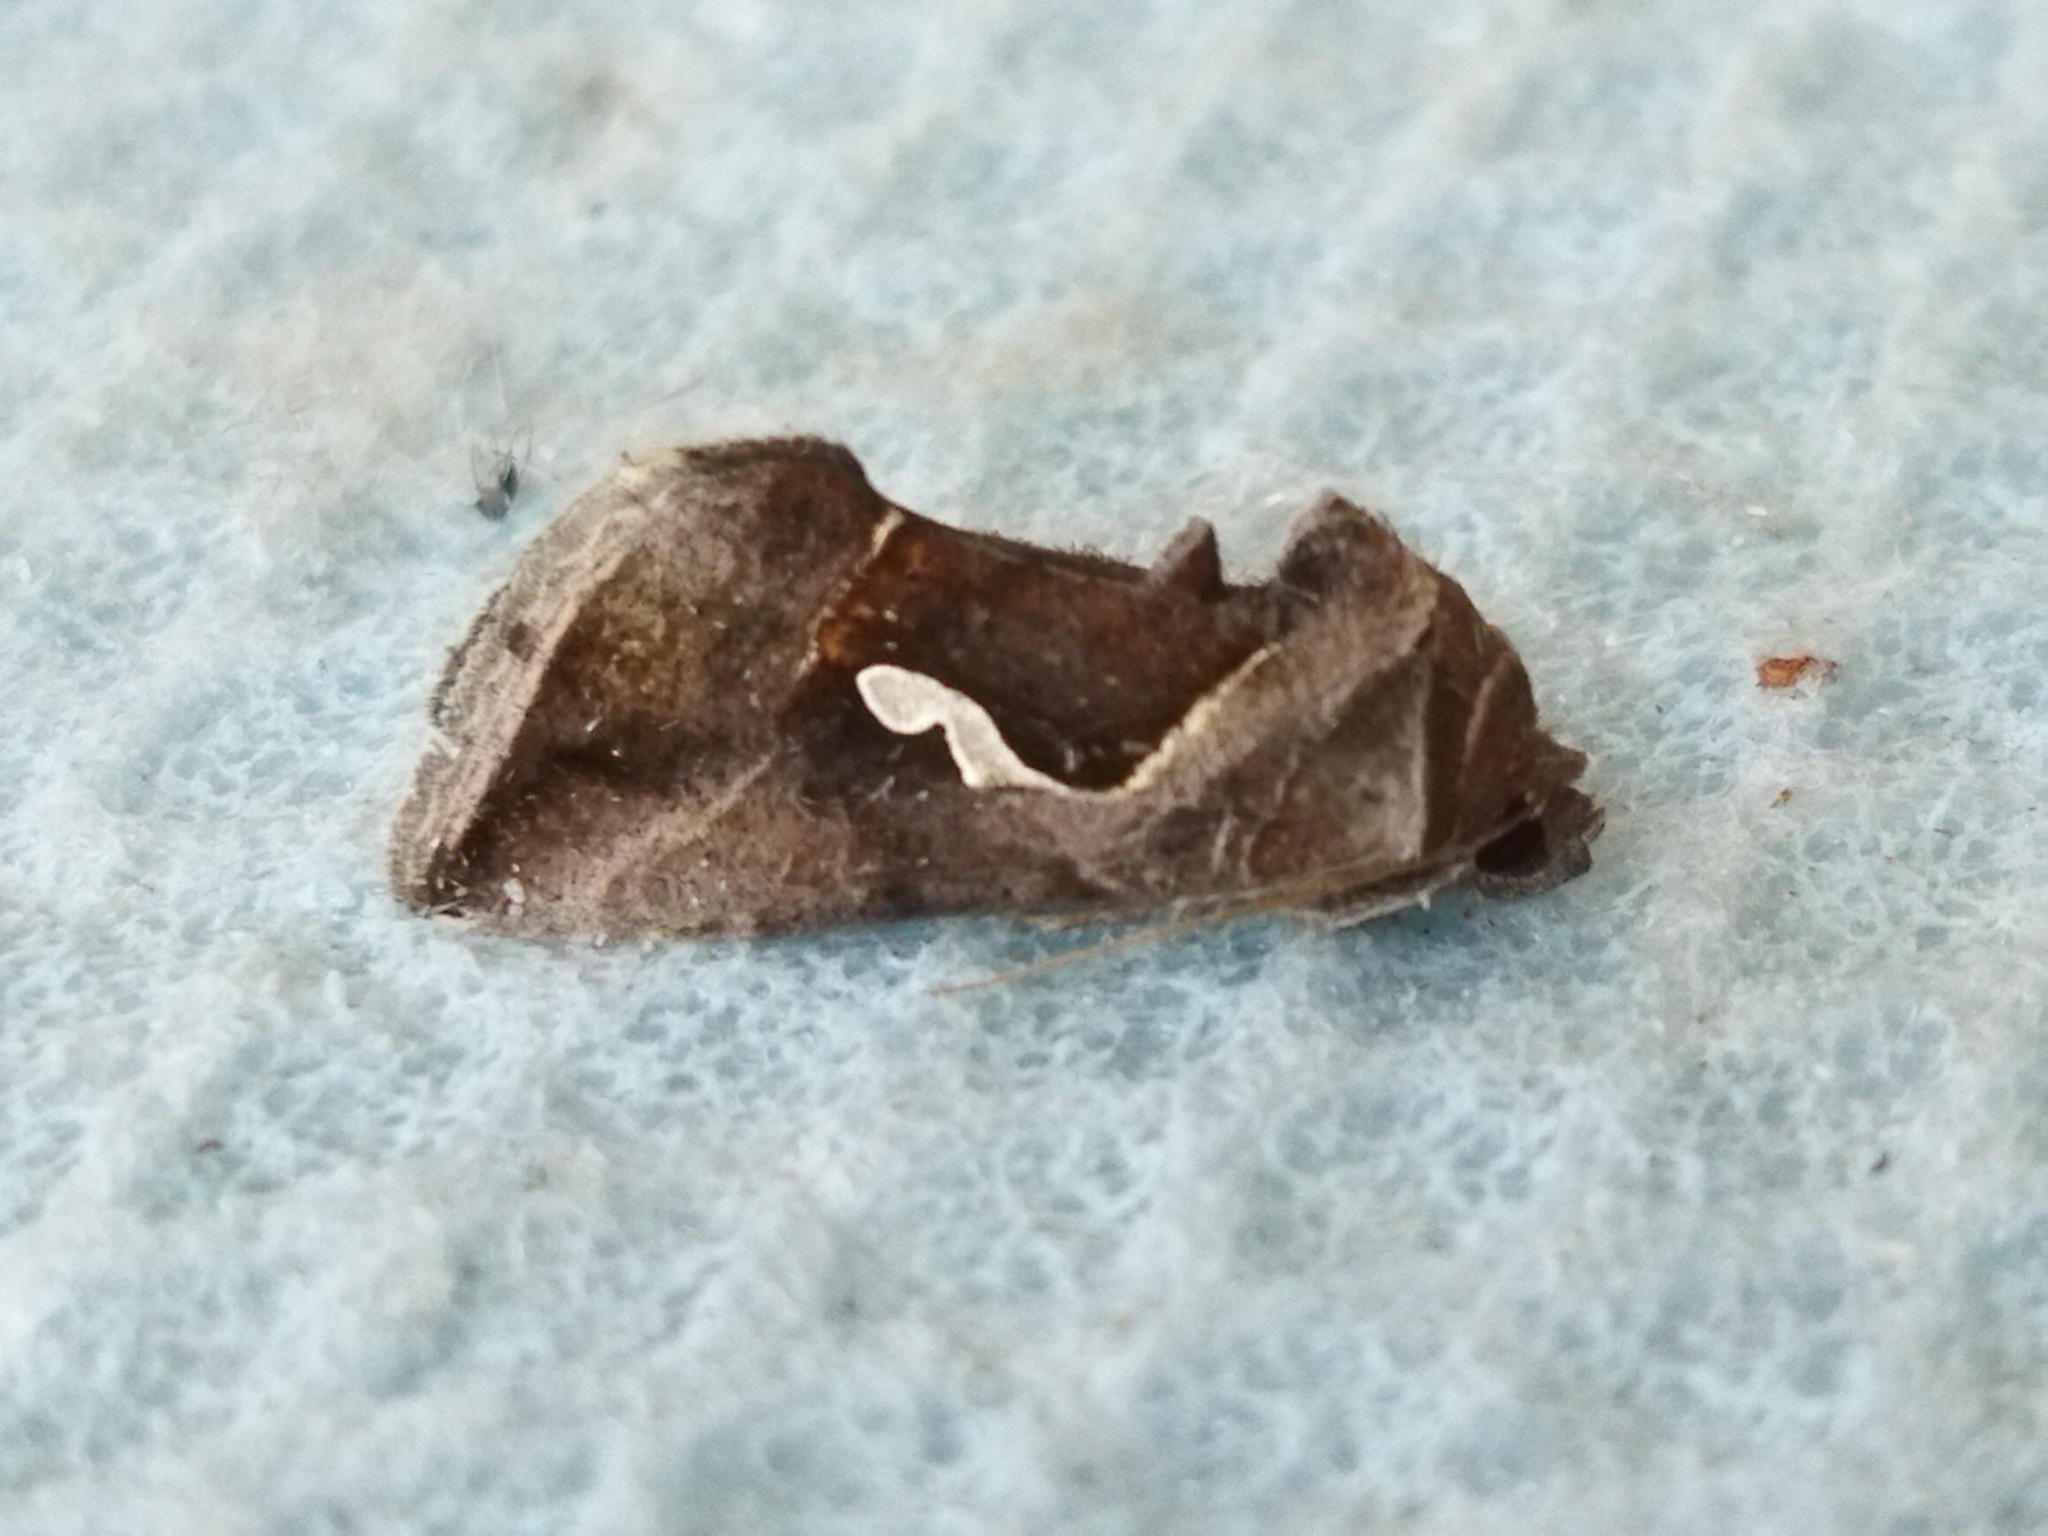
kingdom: Animalia
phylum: Arthropoda
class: Insecta
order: Lepidoptera
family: Noctuidae
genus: Macdunnoughia
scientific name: Macdunnoughia confusa
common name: Dewick's plusia
